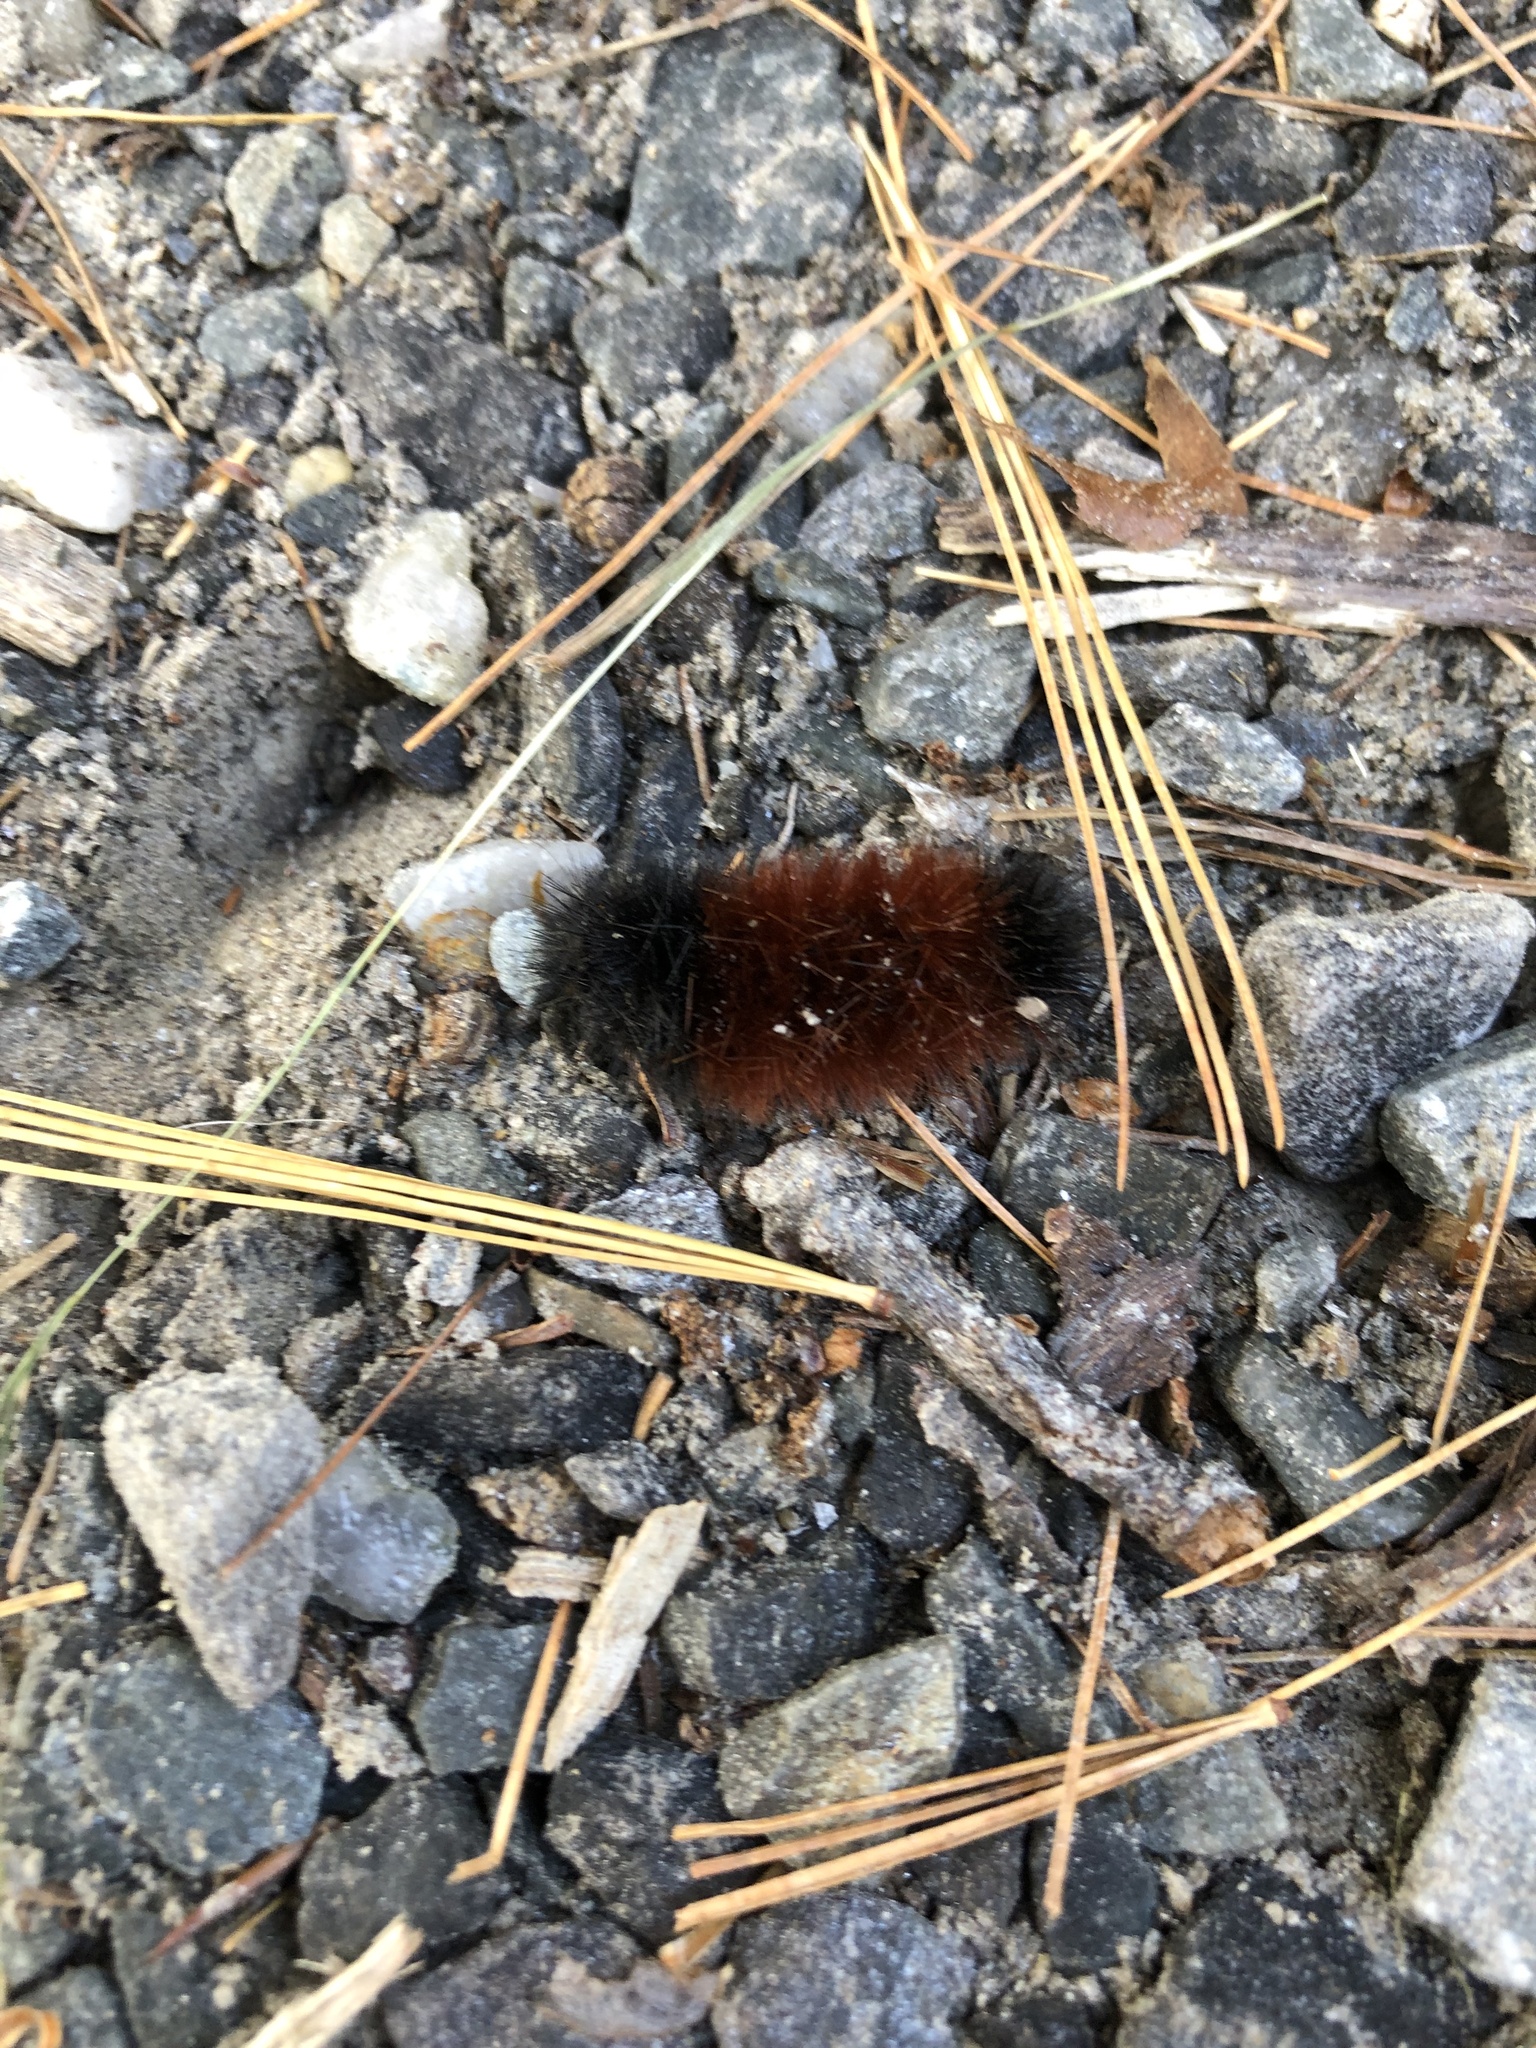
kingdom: Animalia
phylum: Arthropoda
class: Insecta
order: Lepidoptera
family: Erebidae
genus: Pyrrharctia
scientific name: Pyrrharctia isabella
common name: Isabella tiger moth
